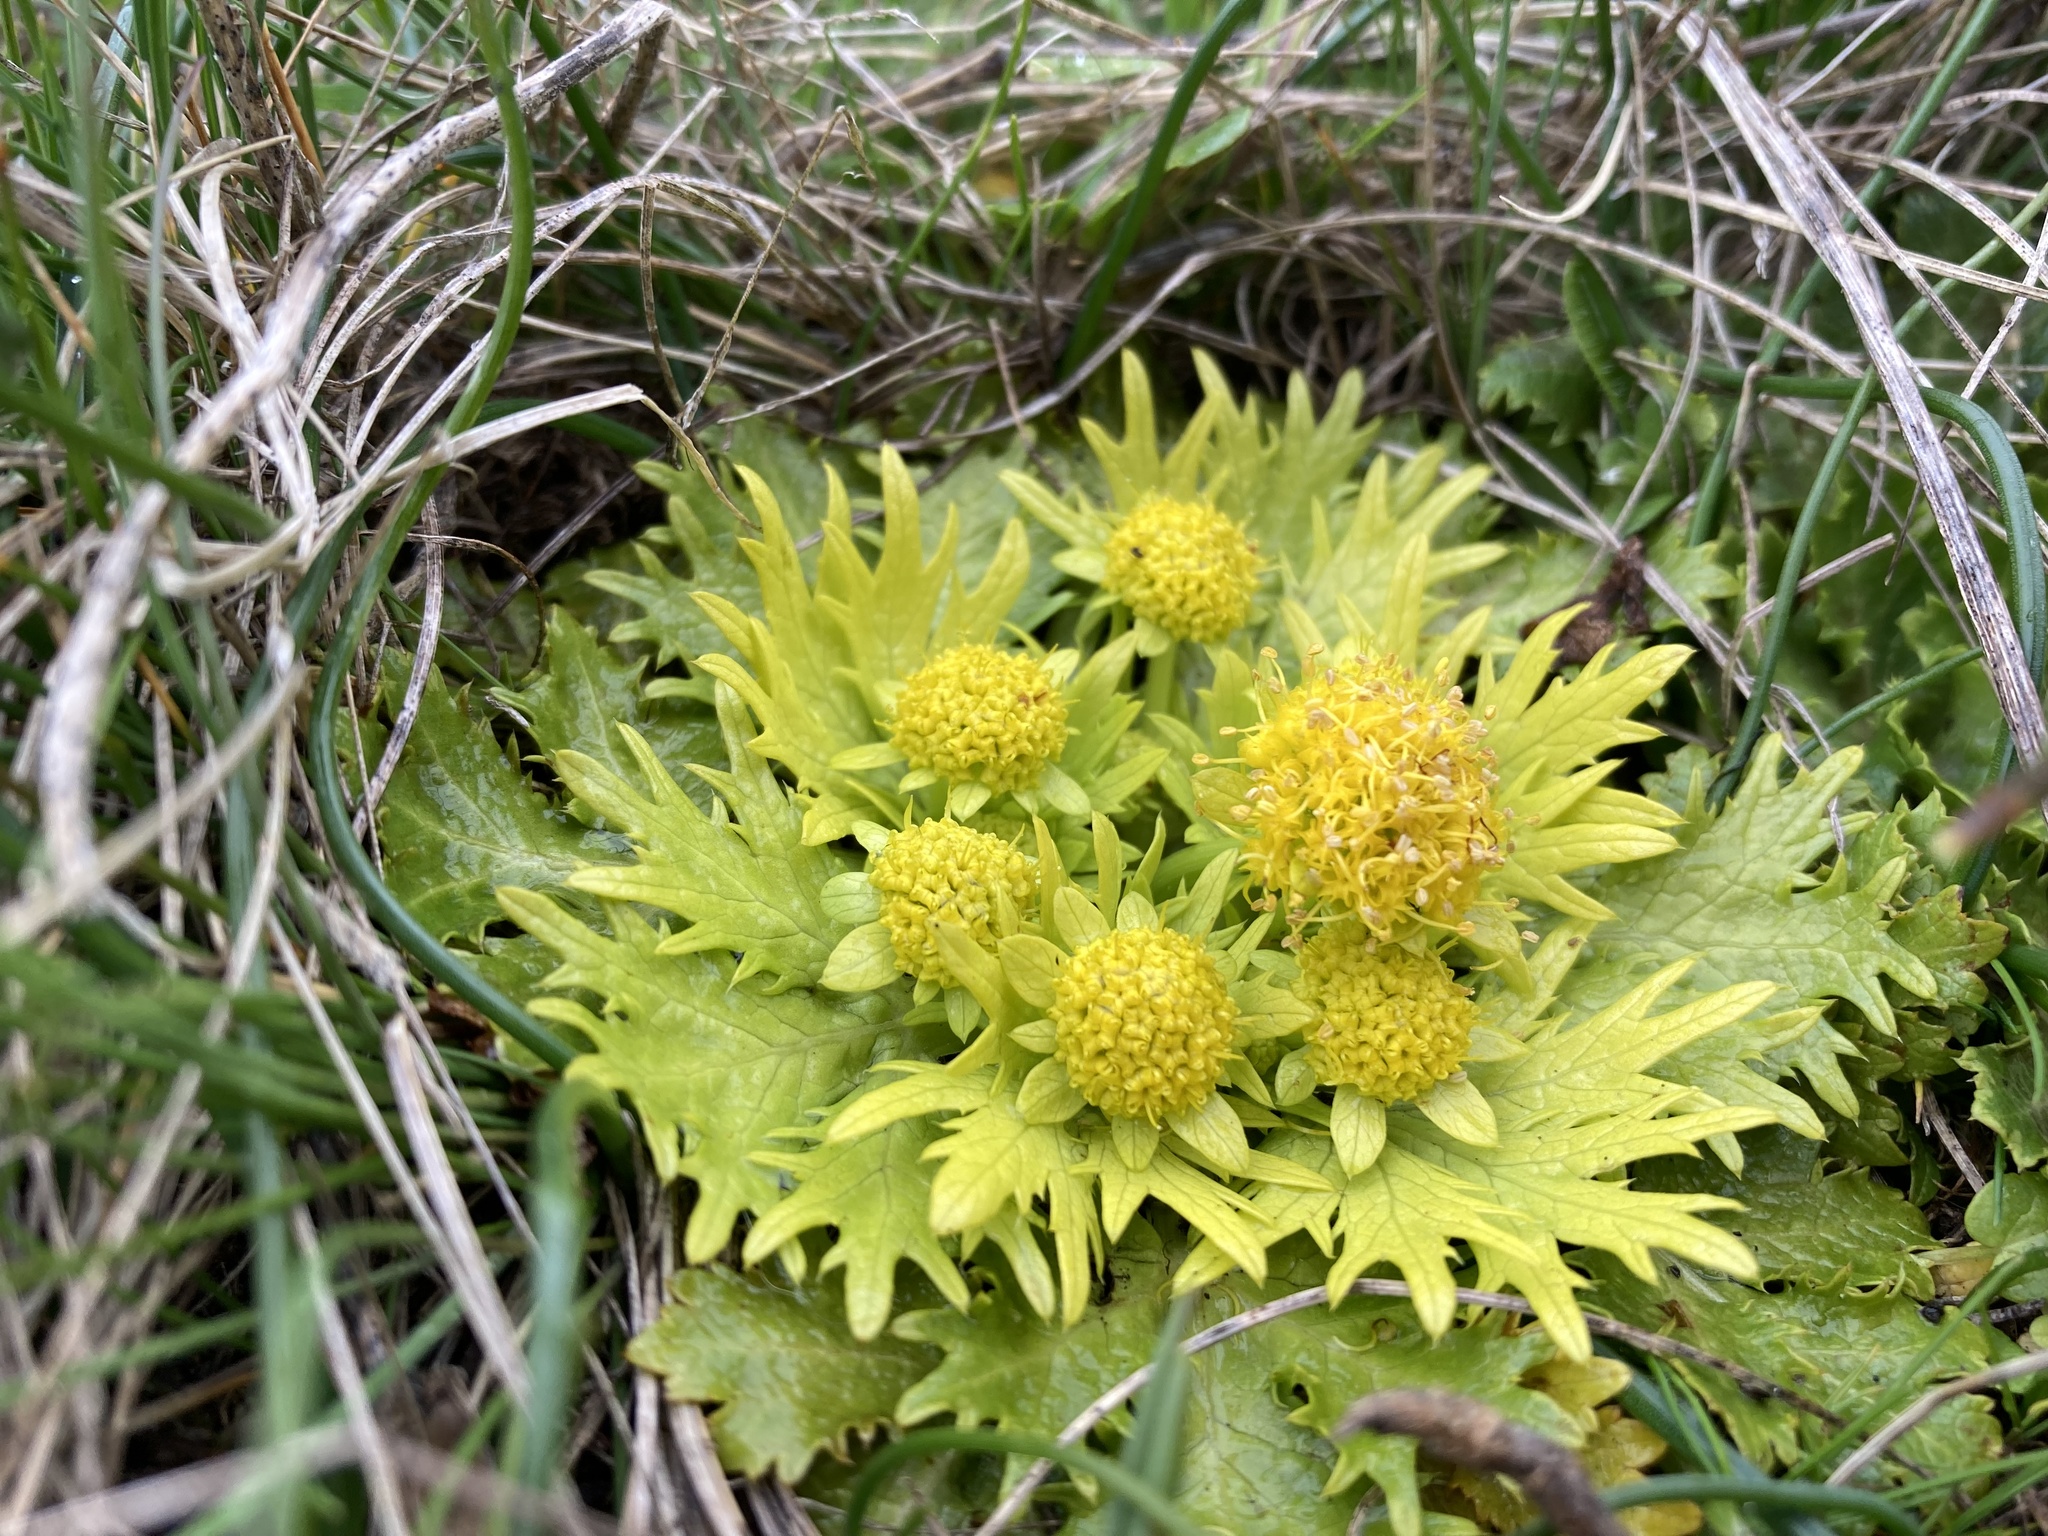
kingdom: Plantae
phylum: Tracheophyta
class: Magnoliopsida
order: Apiales
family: Apiaceae
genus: Sanicula
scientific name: Sanicula arctopoides
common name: Footsteps-of-spring
